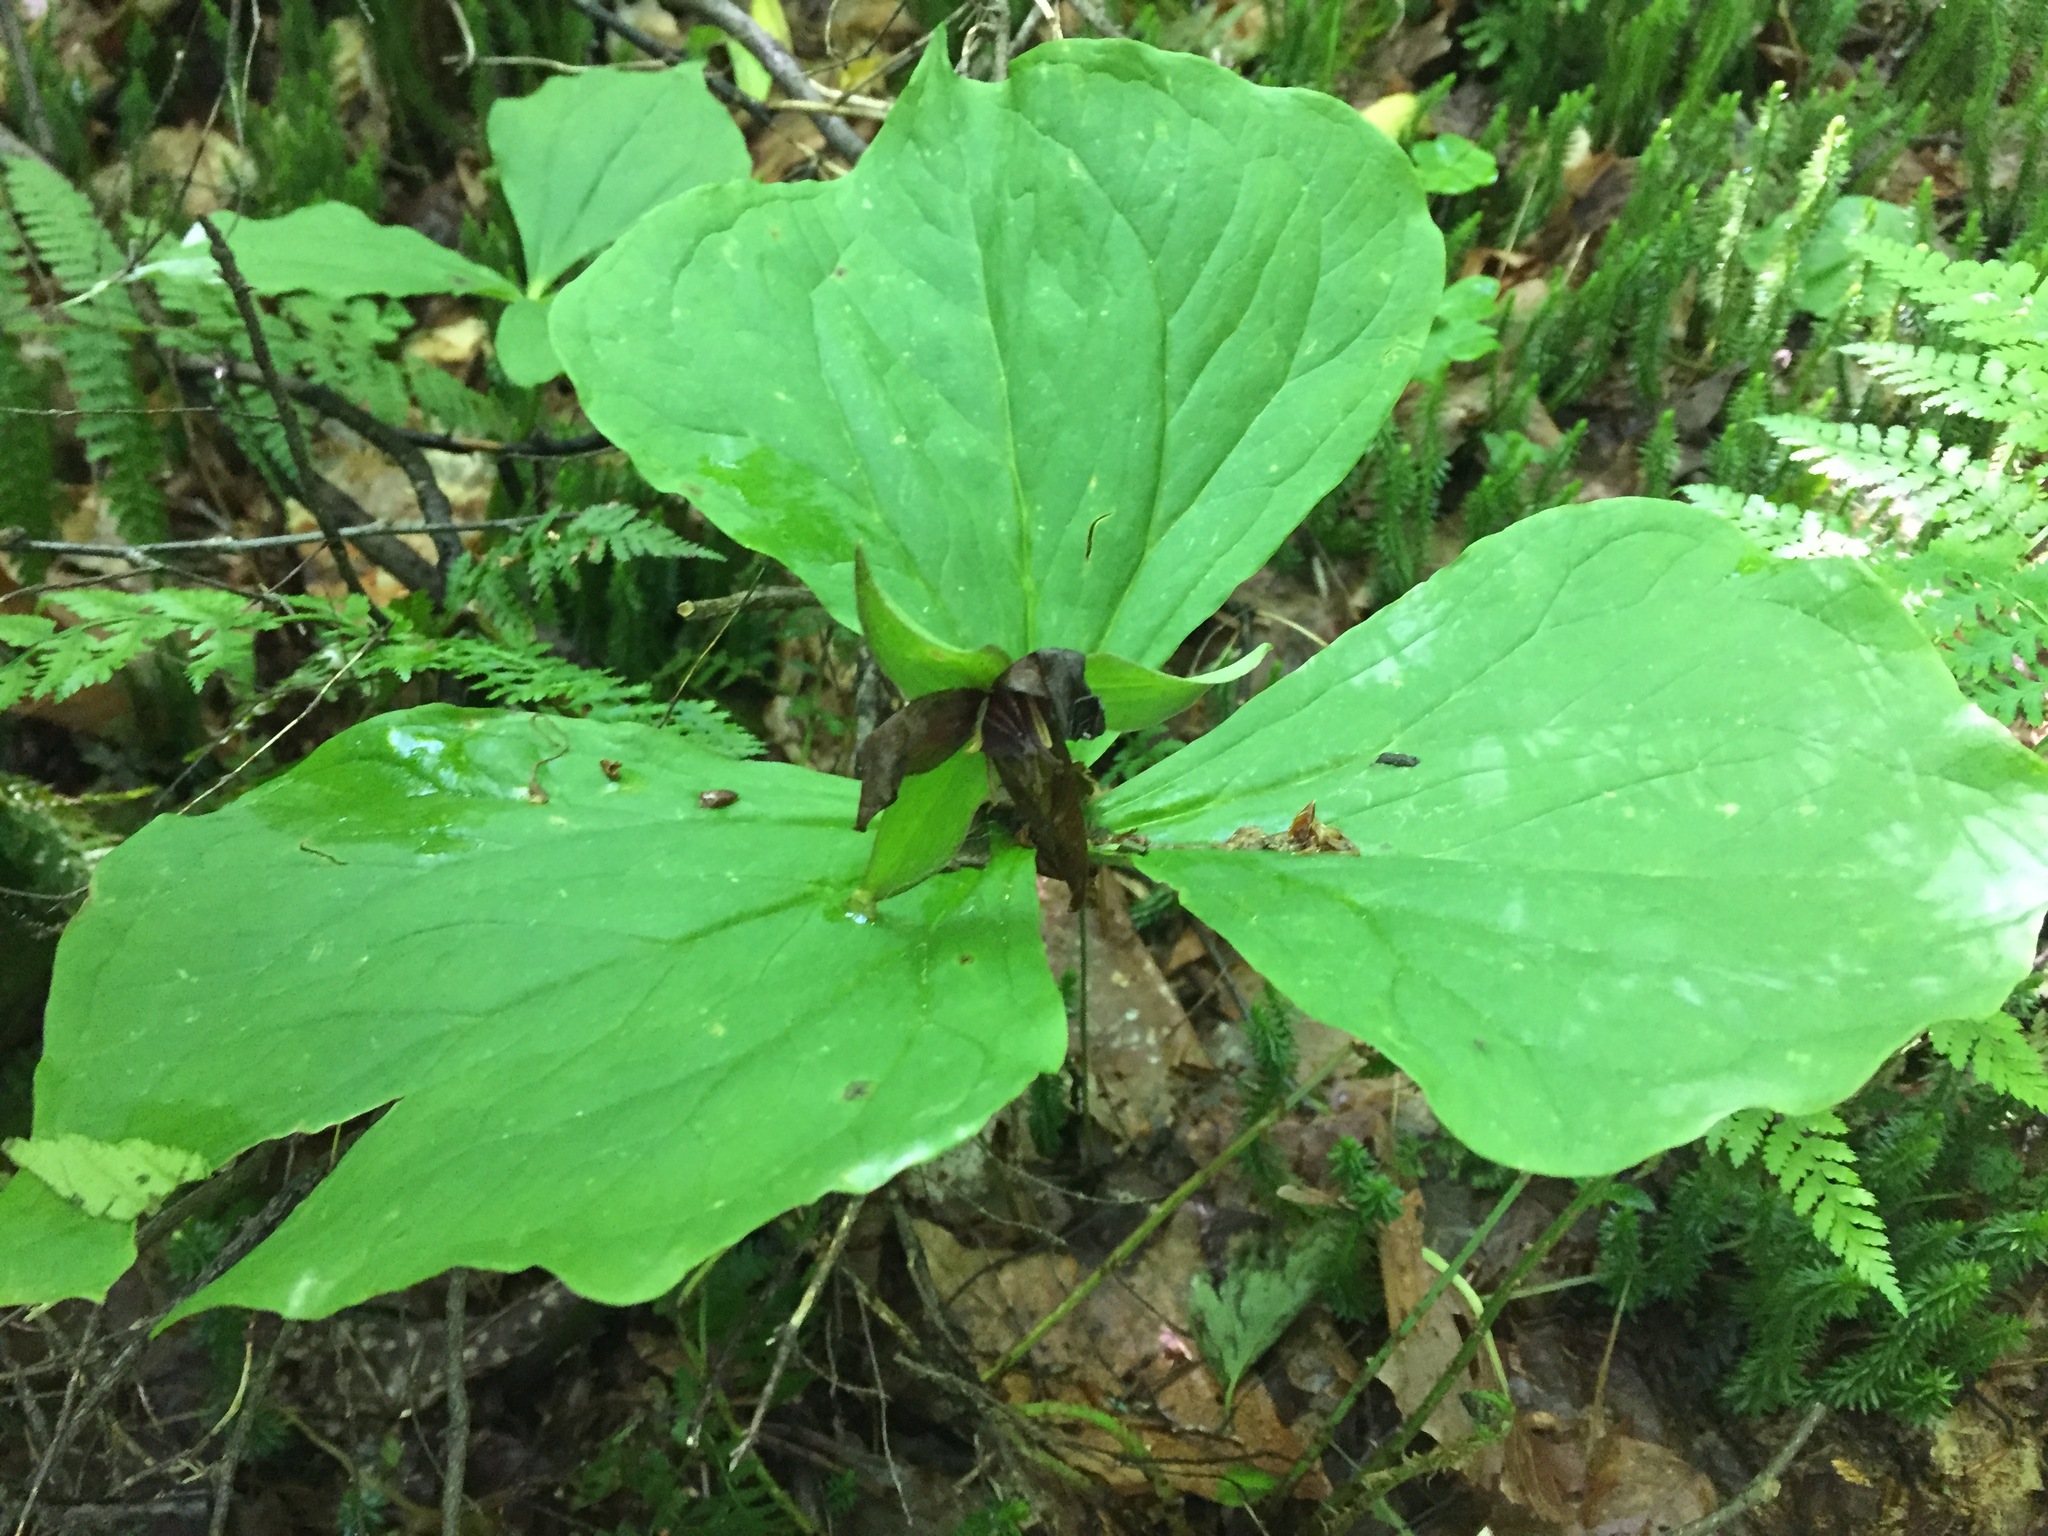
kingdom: Plantae
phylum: Tracheophyta
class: Liliopsida
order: Liliales
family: Melanthiaceae
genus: Trillium
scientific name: Trillium erectum
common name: Purple trillium
